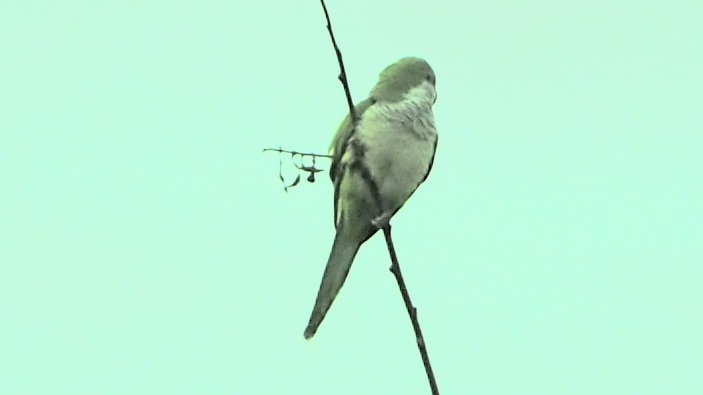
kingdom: Animalia
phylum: Chordata
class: Aves
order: Psittaciformes
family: Psittacidae
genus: Myiopsitta
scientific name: Myiopsitta monachus
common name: Monk parakeet
